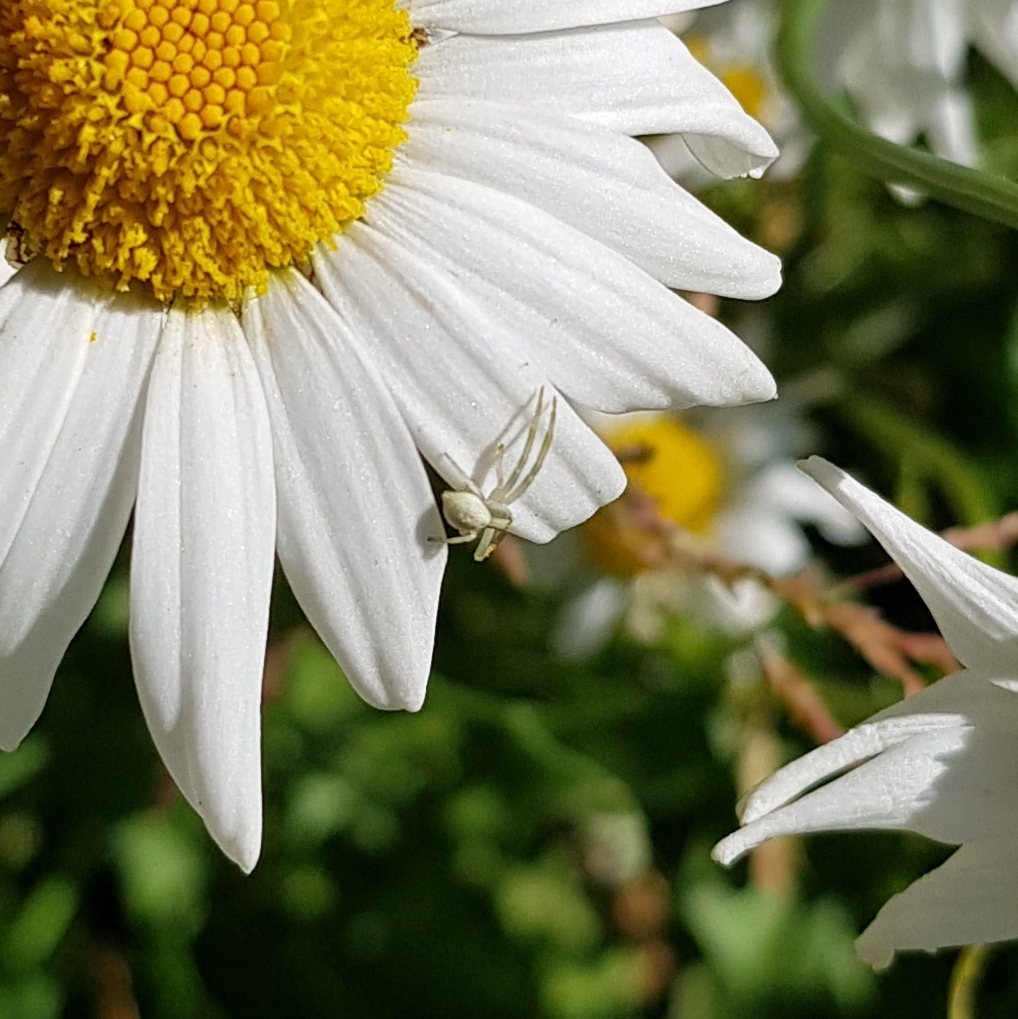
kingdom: Animalia
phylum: Arthropoda
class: Arachnida
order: Araneae
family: Thomisidae
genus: Misumena
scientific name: Misumena vatia
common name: Goldenrod crab spider
